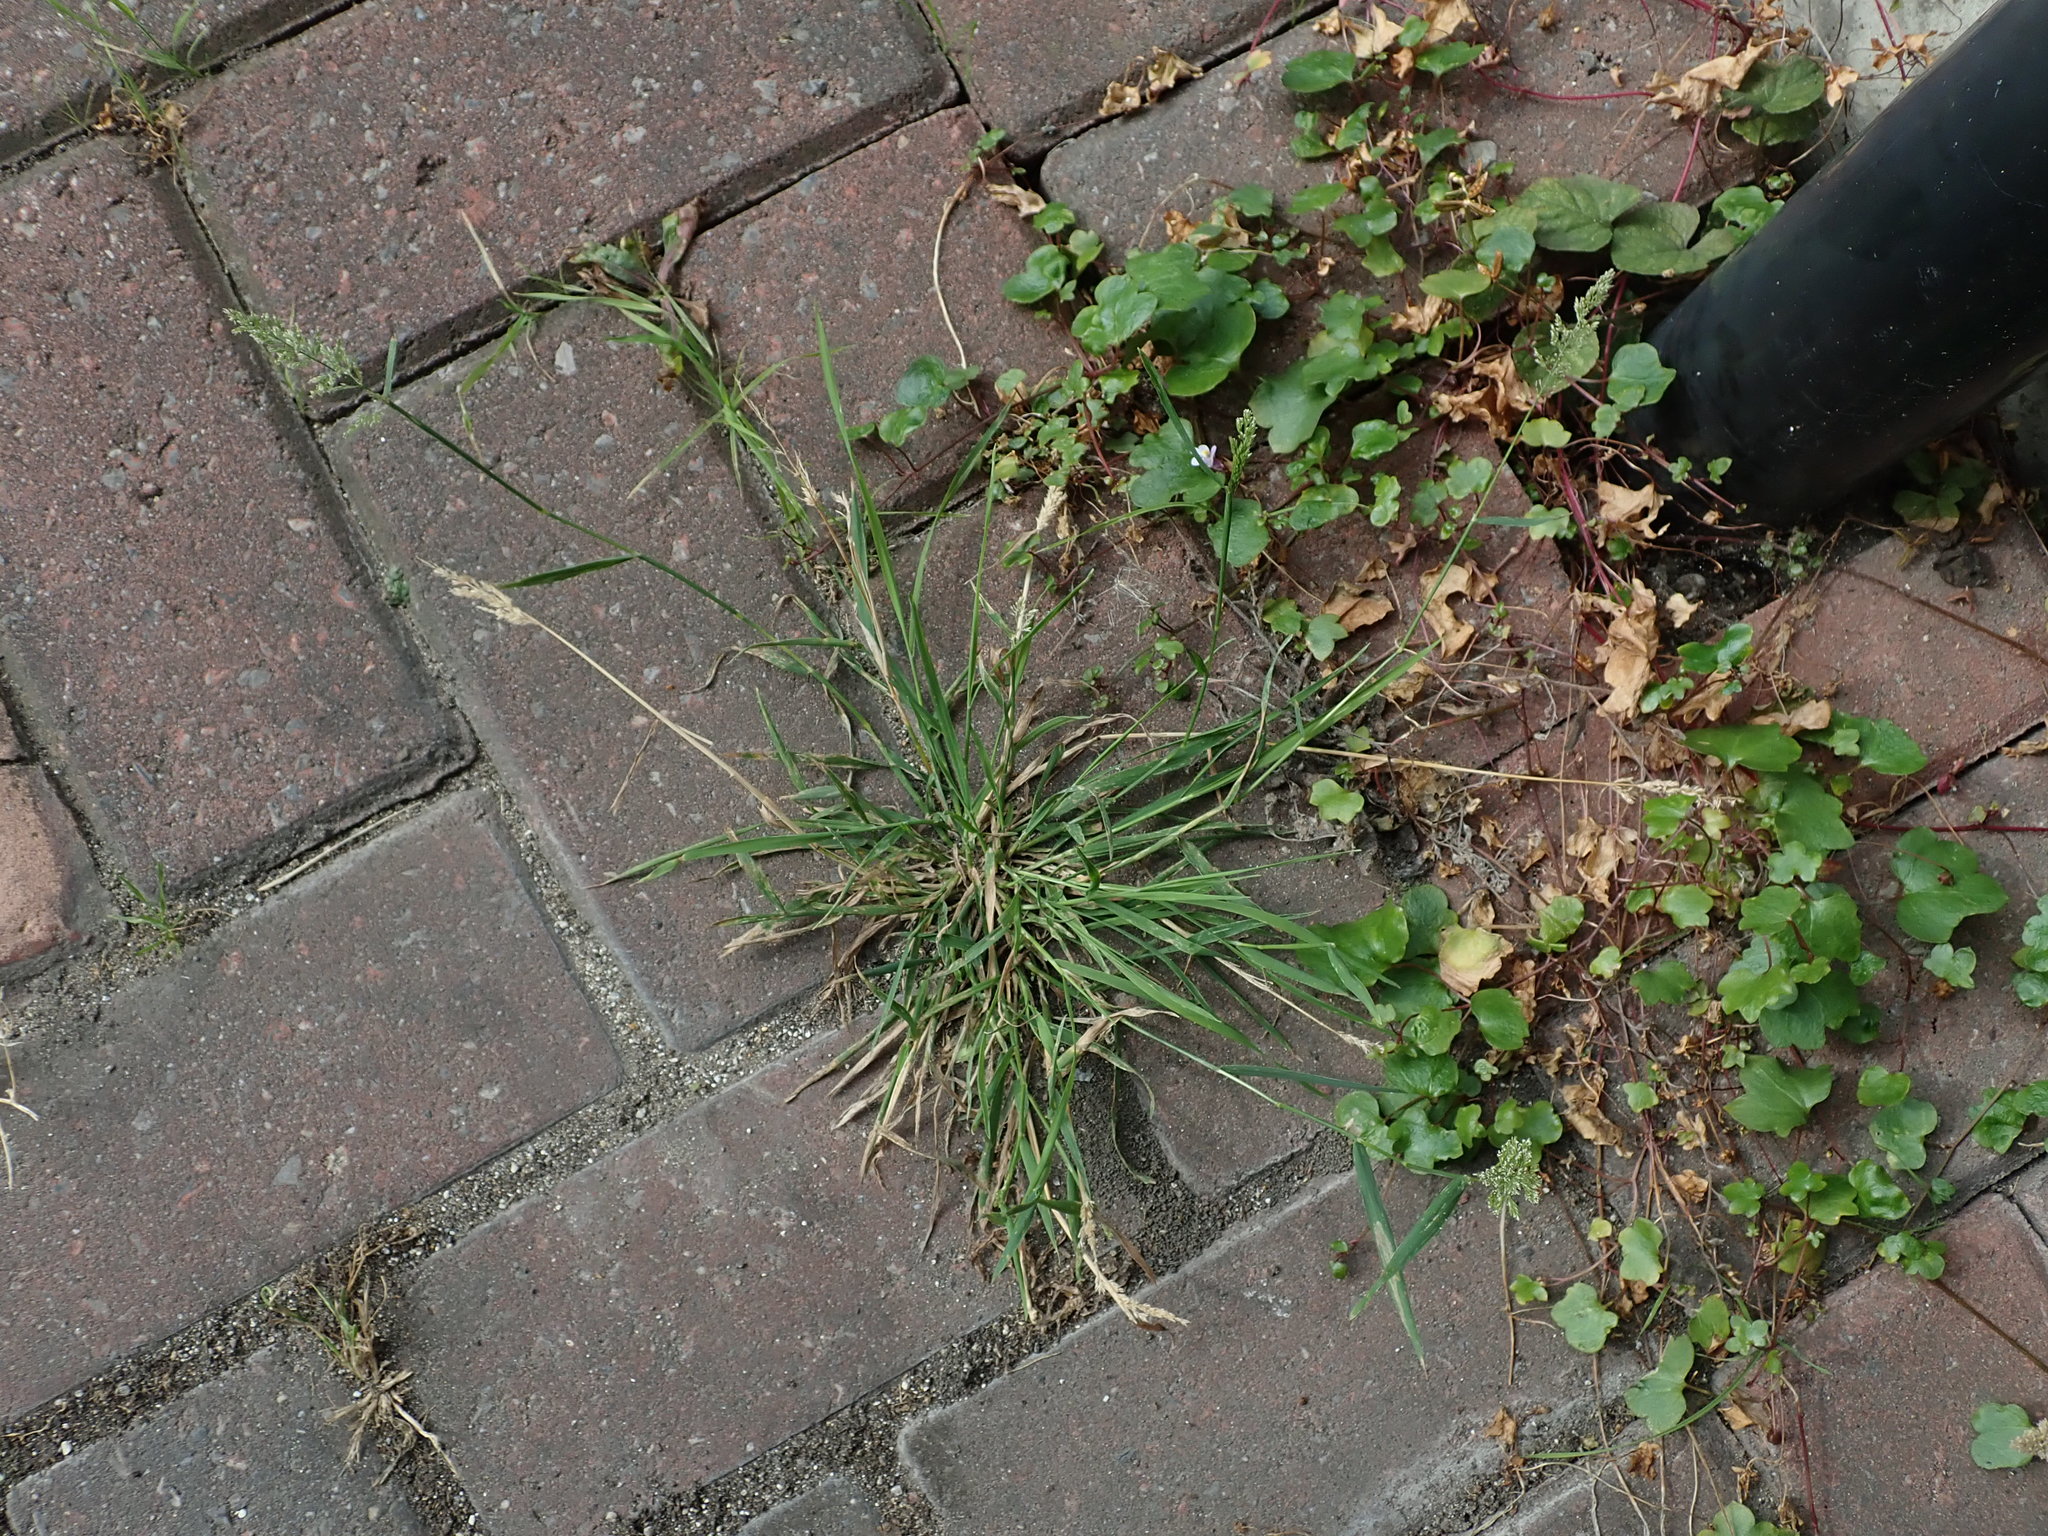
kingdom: Plantae
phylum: Tracheophyta
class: Liliopsida
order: Poales
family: Poaceae
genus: Polypogon
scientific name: Polypogon viridis
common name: Water bent
